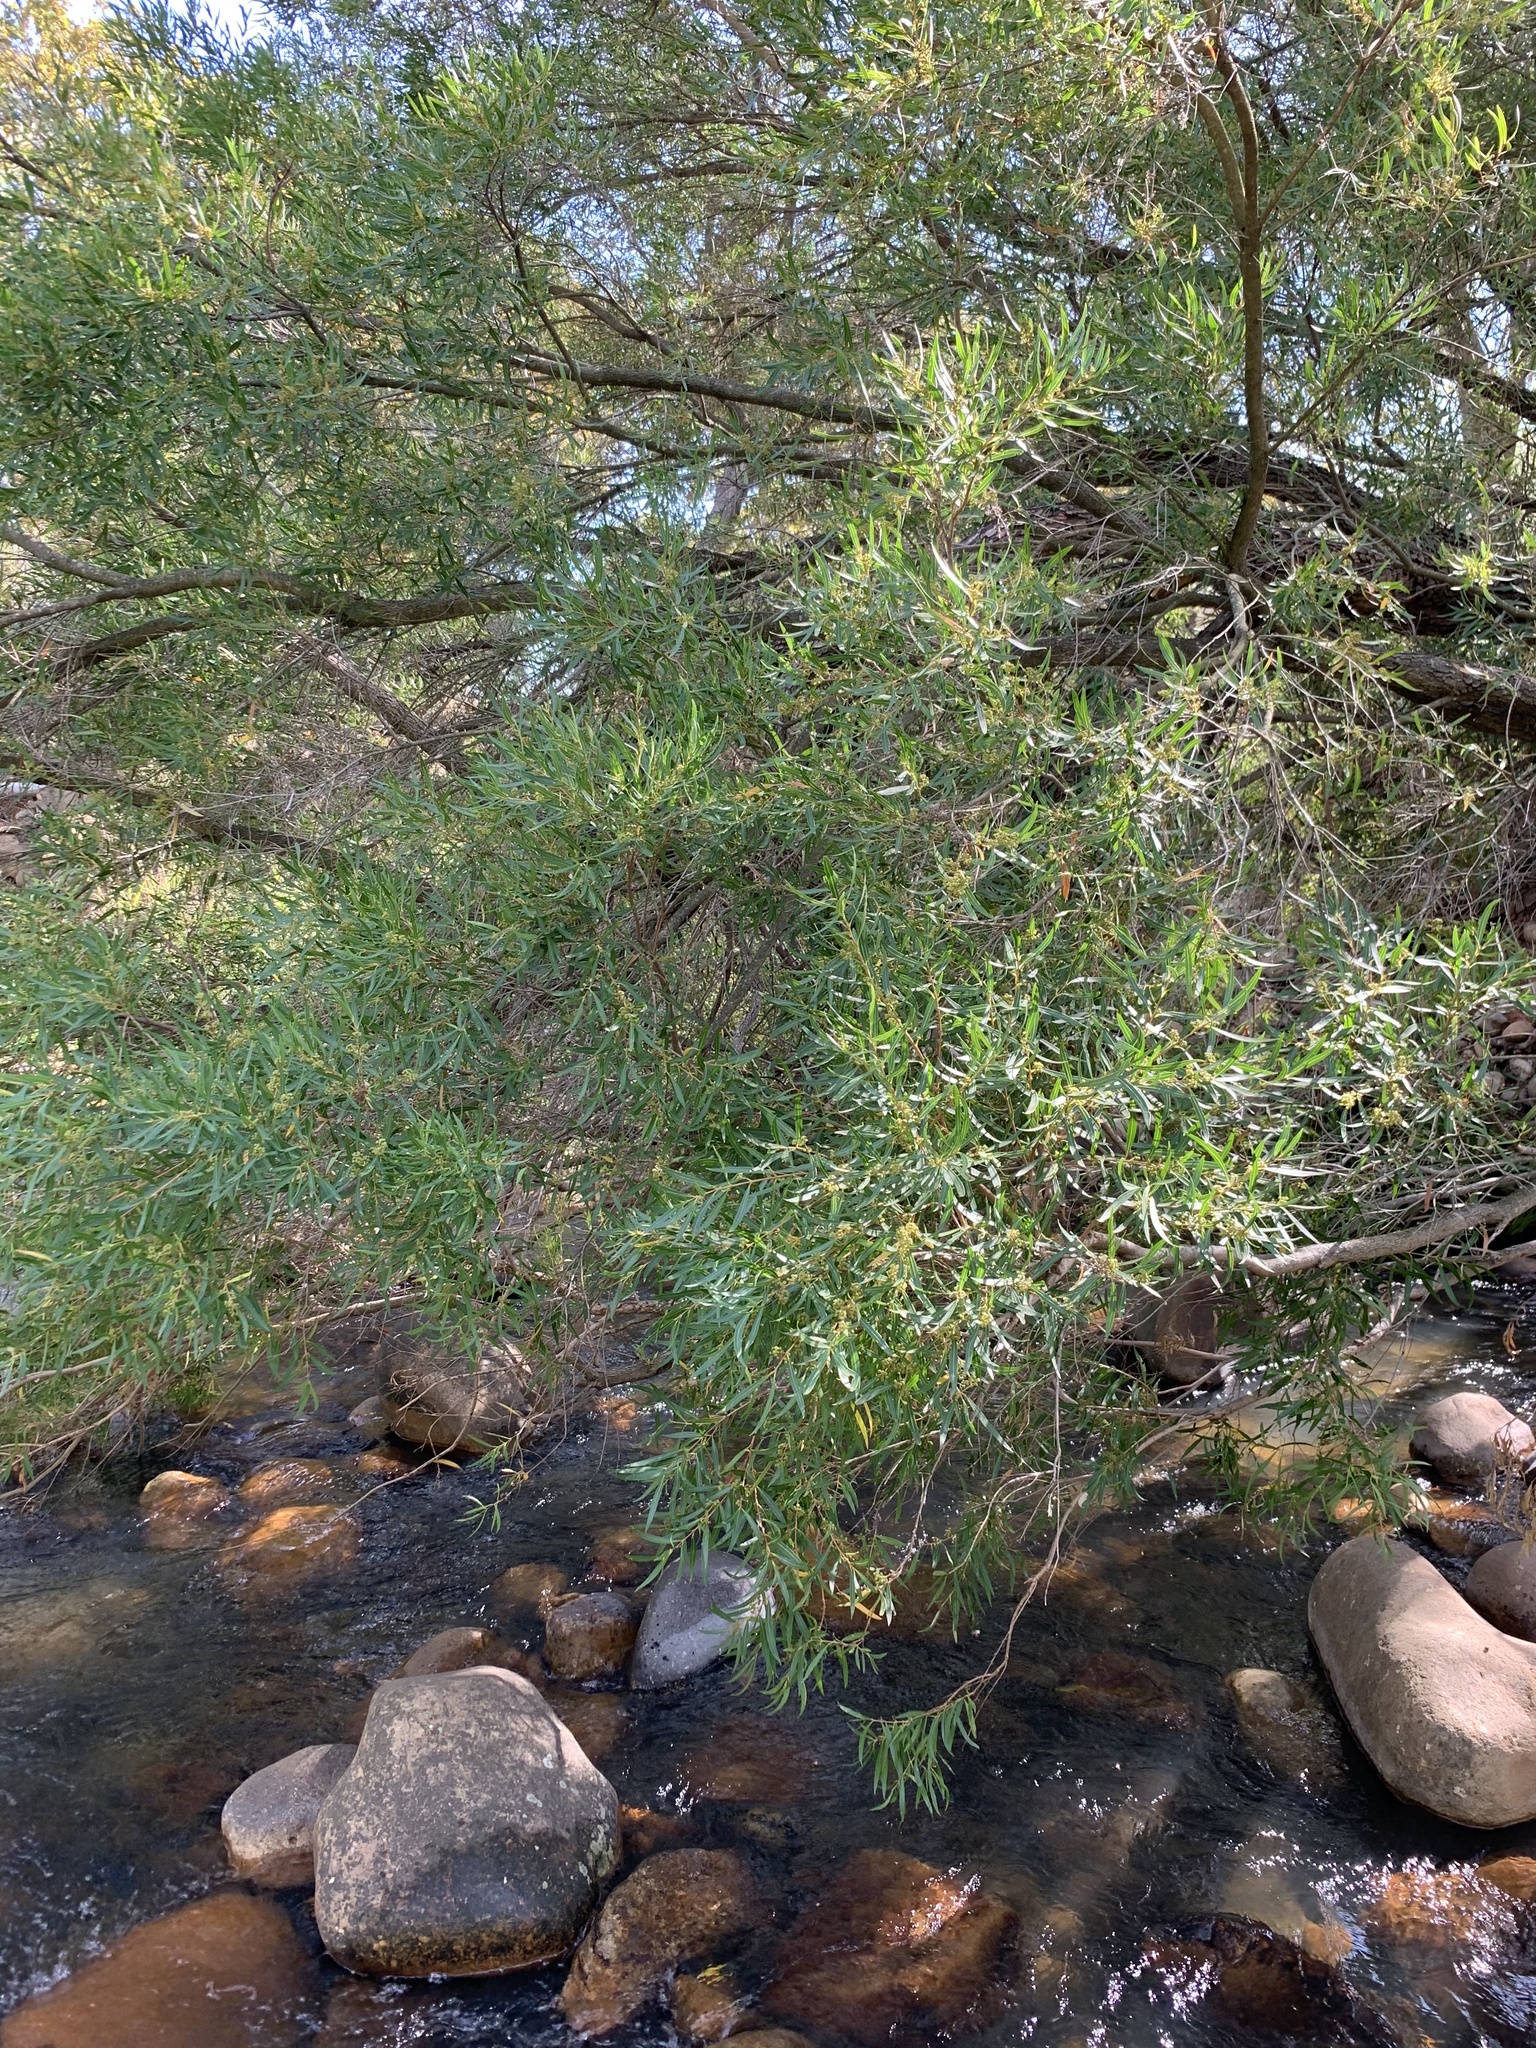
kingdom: Plantae
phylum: Tracheophyta
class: Magnoliopsida
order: Myrtales
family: Myrtaceae
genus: Callistemon
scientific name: Callistemon lanceolatus
